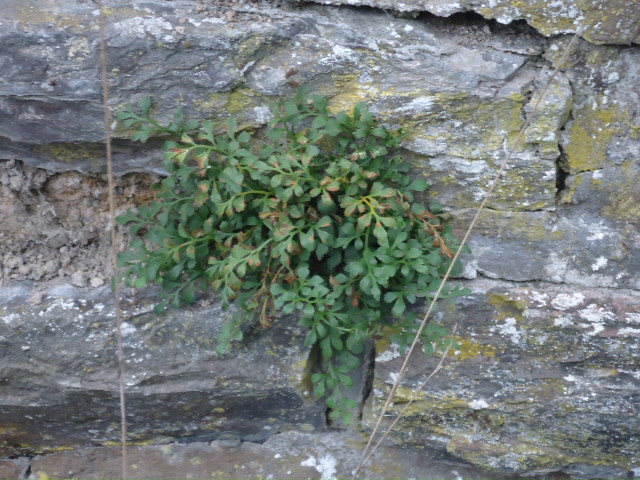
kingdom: Plantae
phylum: Tracheophyta
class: Polypodiopsida
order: Polypodiales
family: Aspleniaceae
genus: Asplenium
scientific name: Asplenium ruta-muraria
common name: Wall-rue
